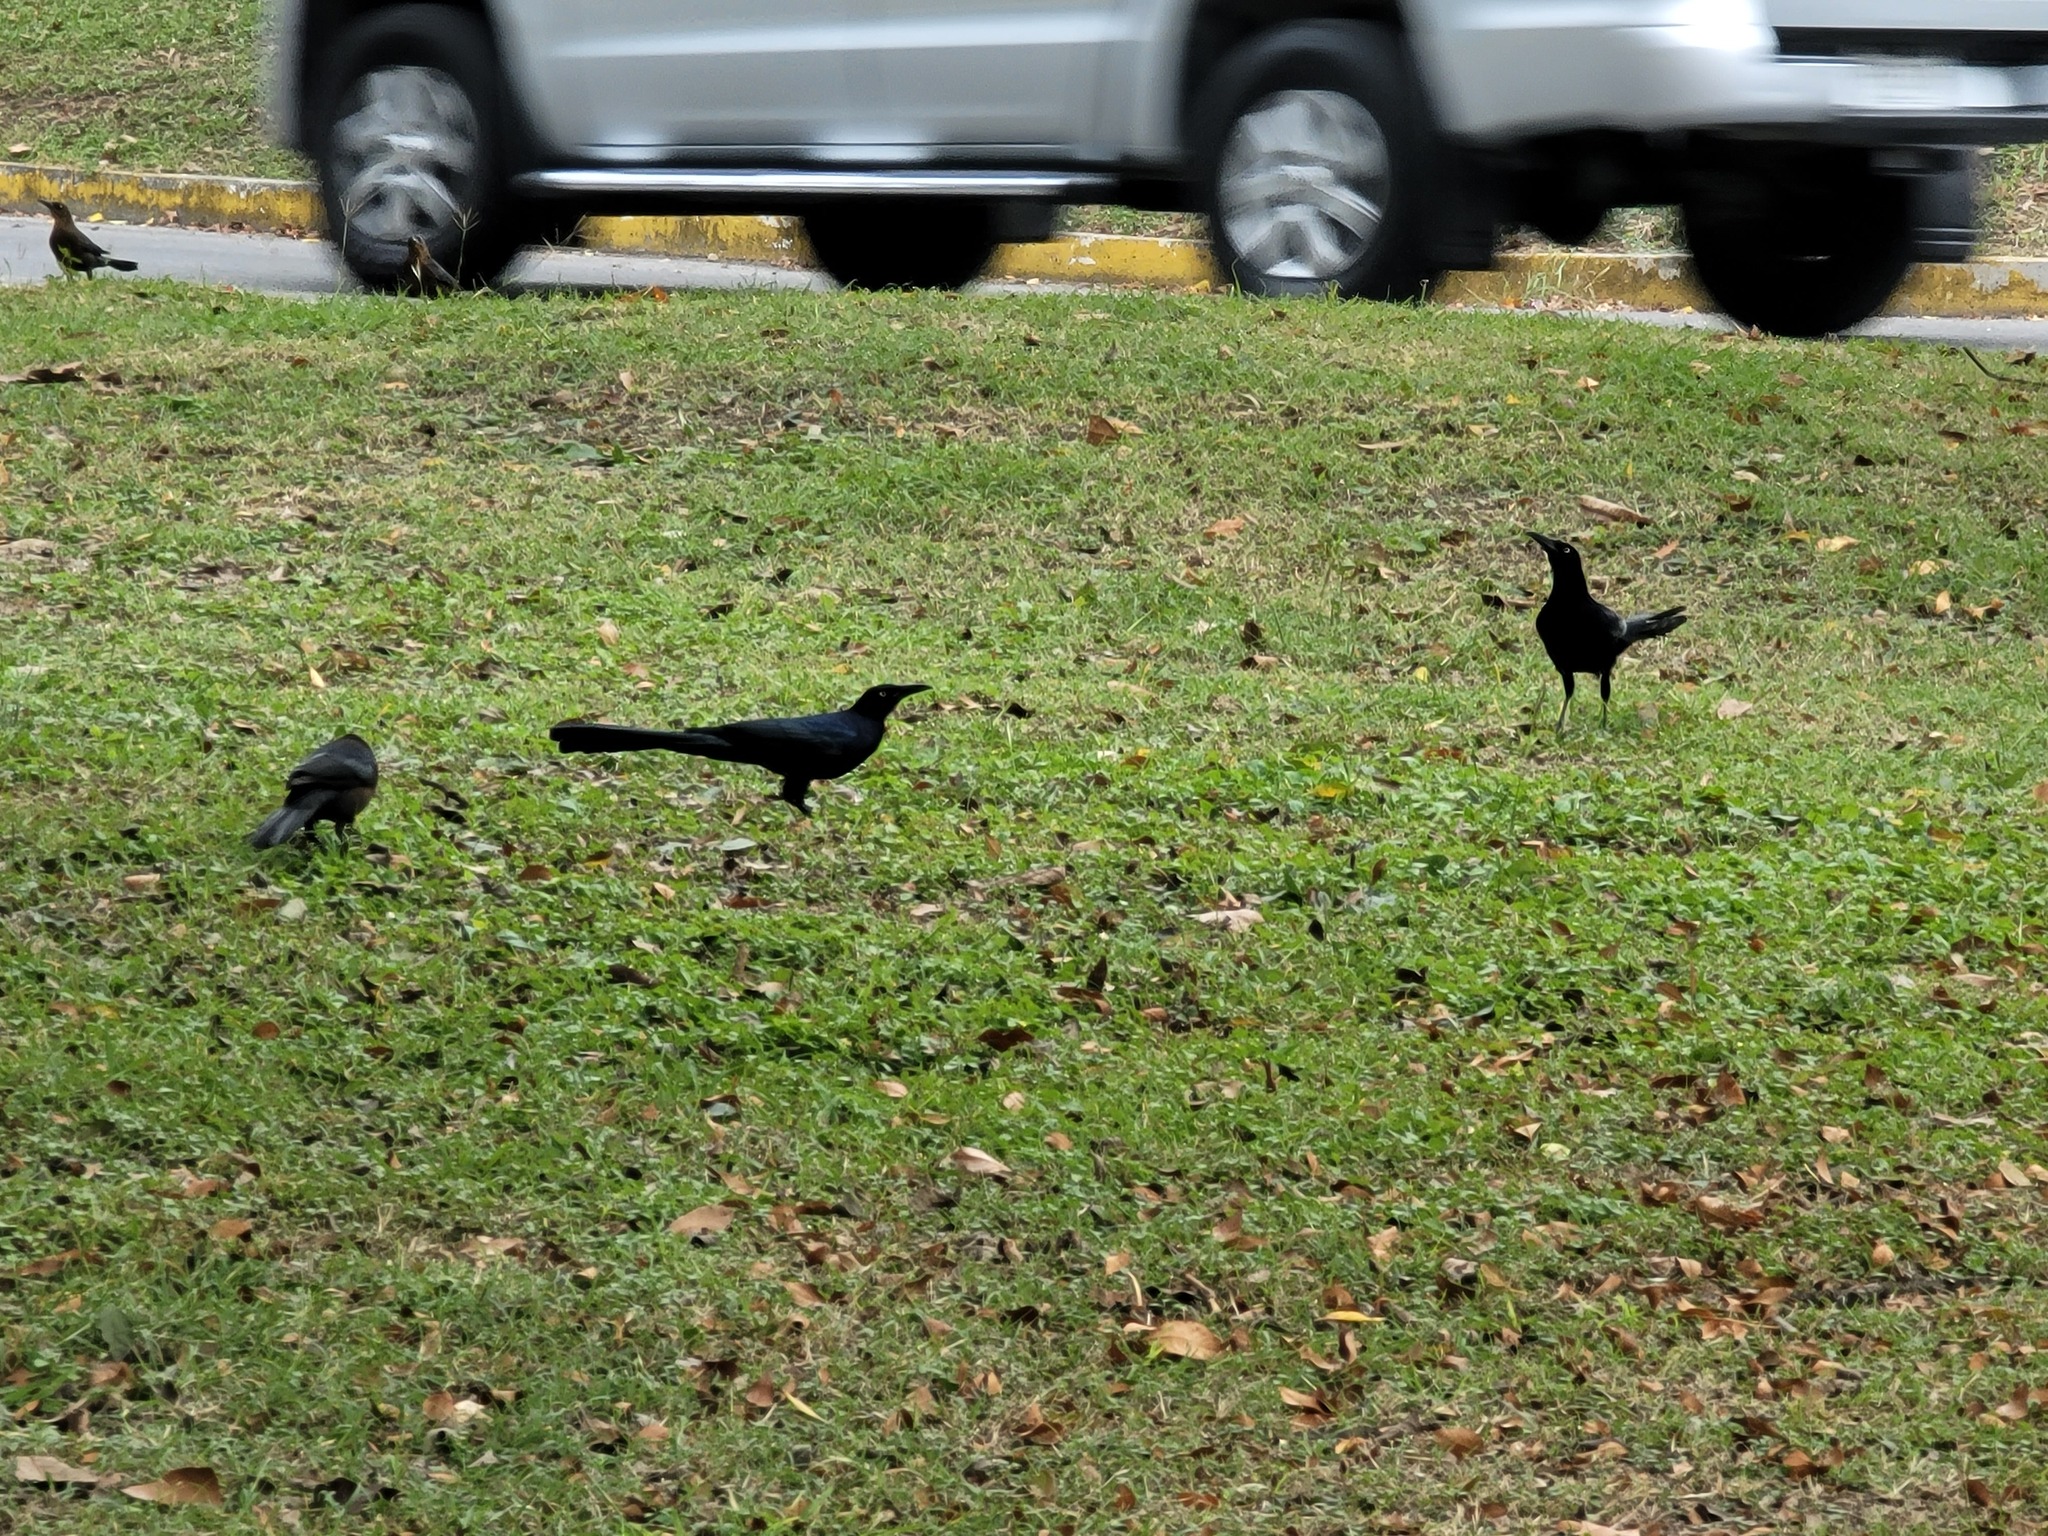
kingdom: Animalia
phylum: Chordata
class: Aves
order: Passeriformes
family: Icteridae
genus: Quiscalus
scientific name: Quiscalus mexicanus
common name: Great-tailed grackle
